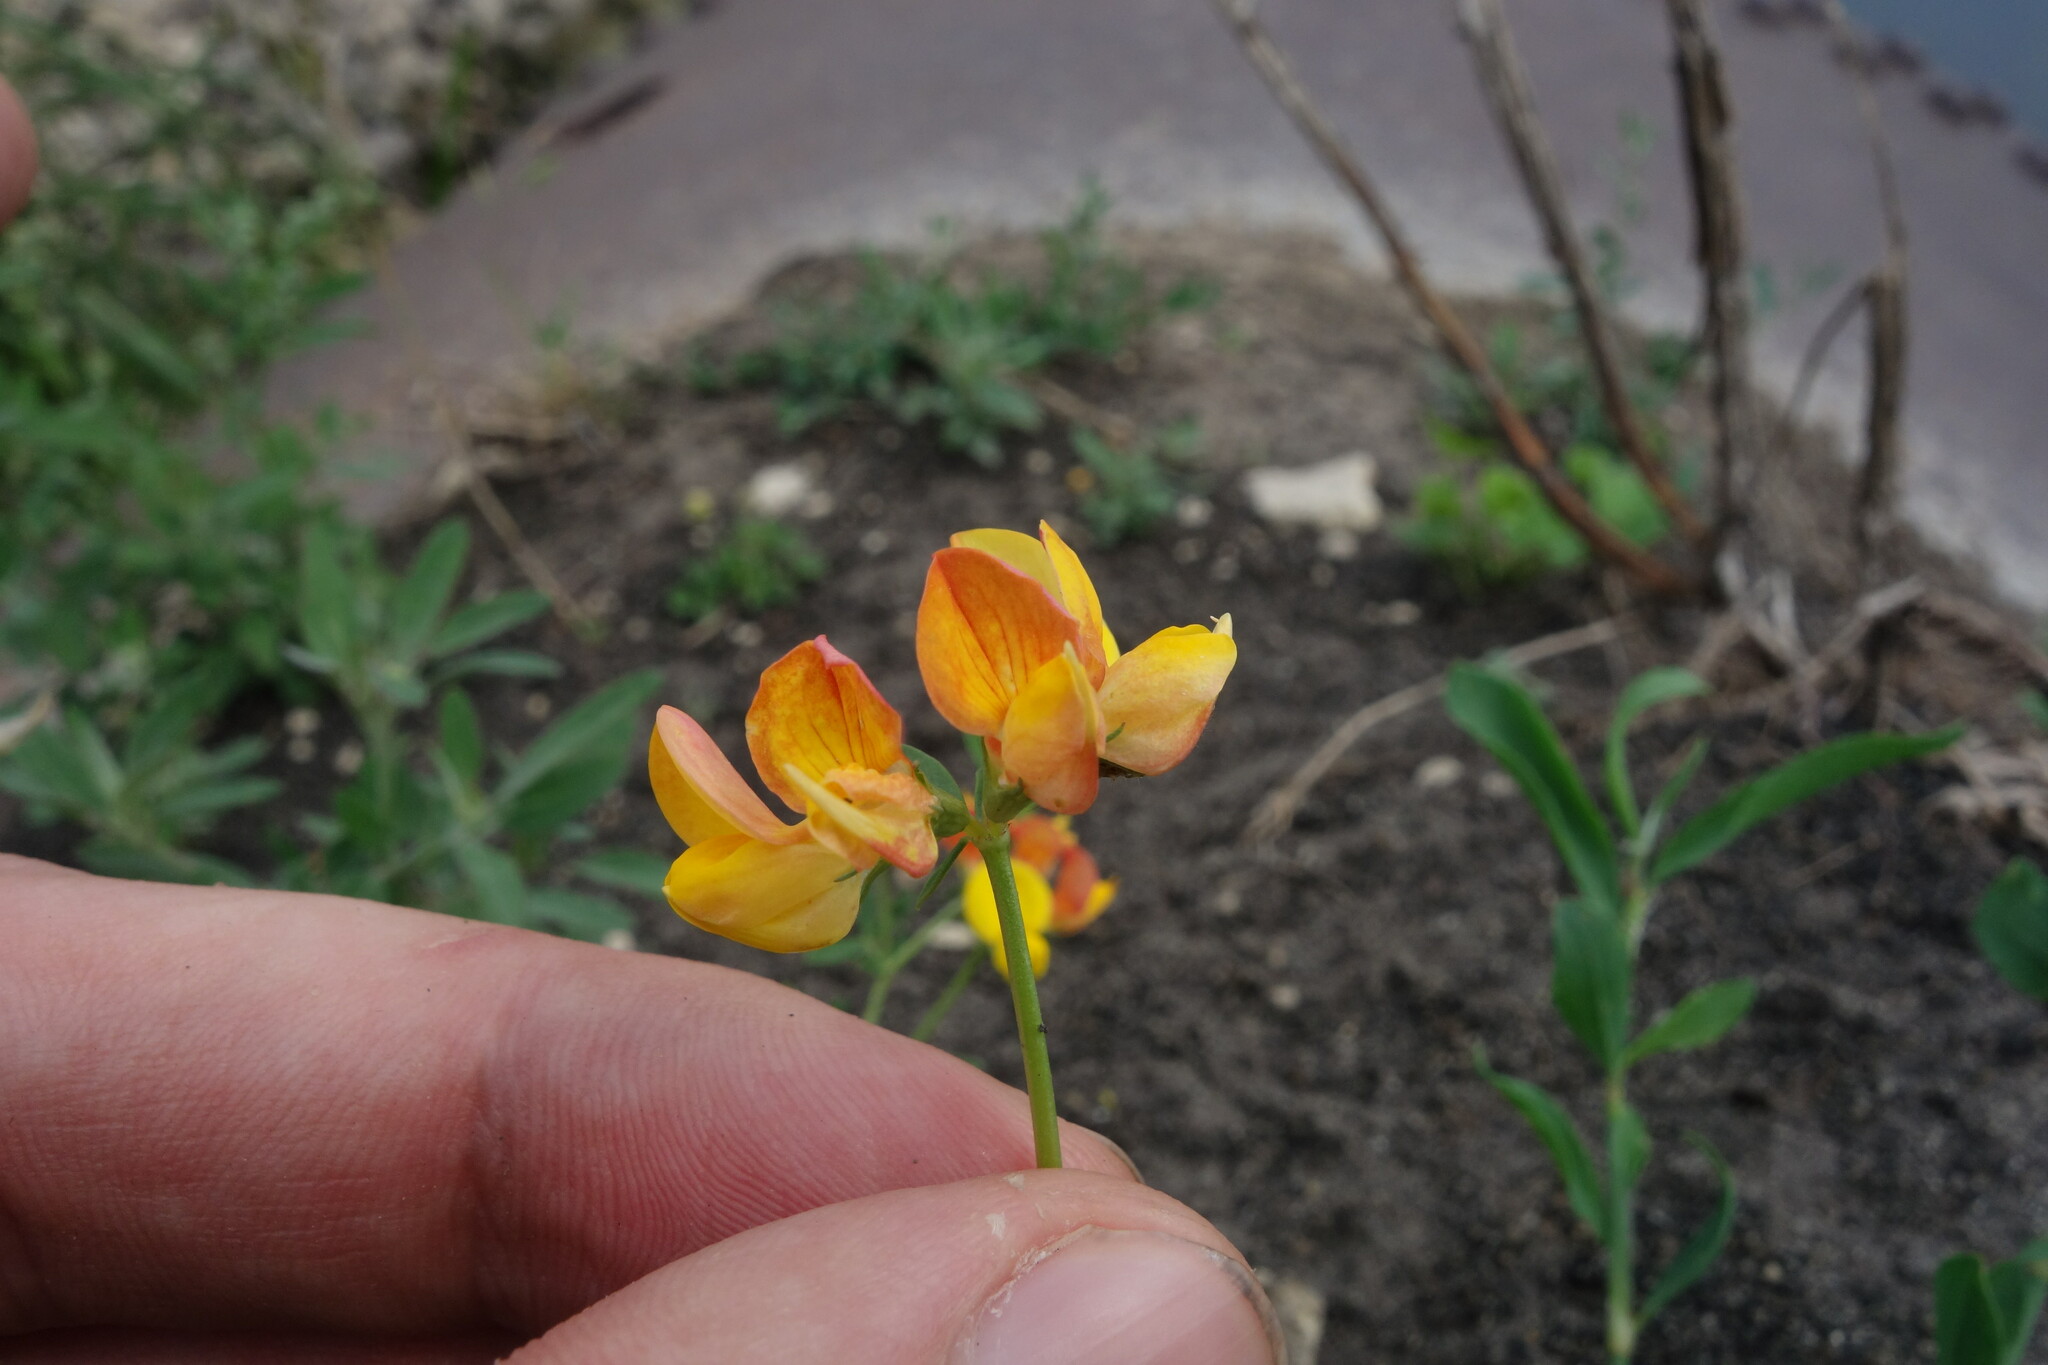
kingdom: Plantae
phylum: Tracheophyta
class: Magnoliopsida
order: Fabales
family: Fabaceae
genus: Lotus
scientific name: Lotus corniculatus
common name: Common bird's-foot-trefoil
